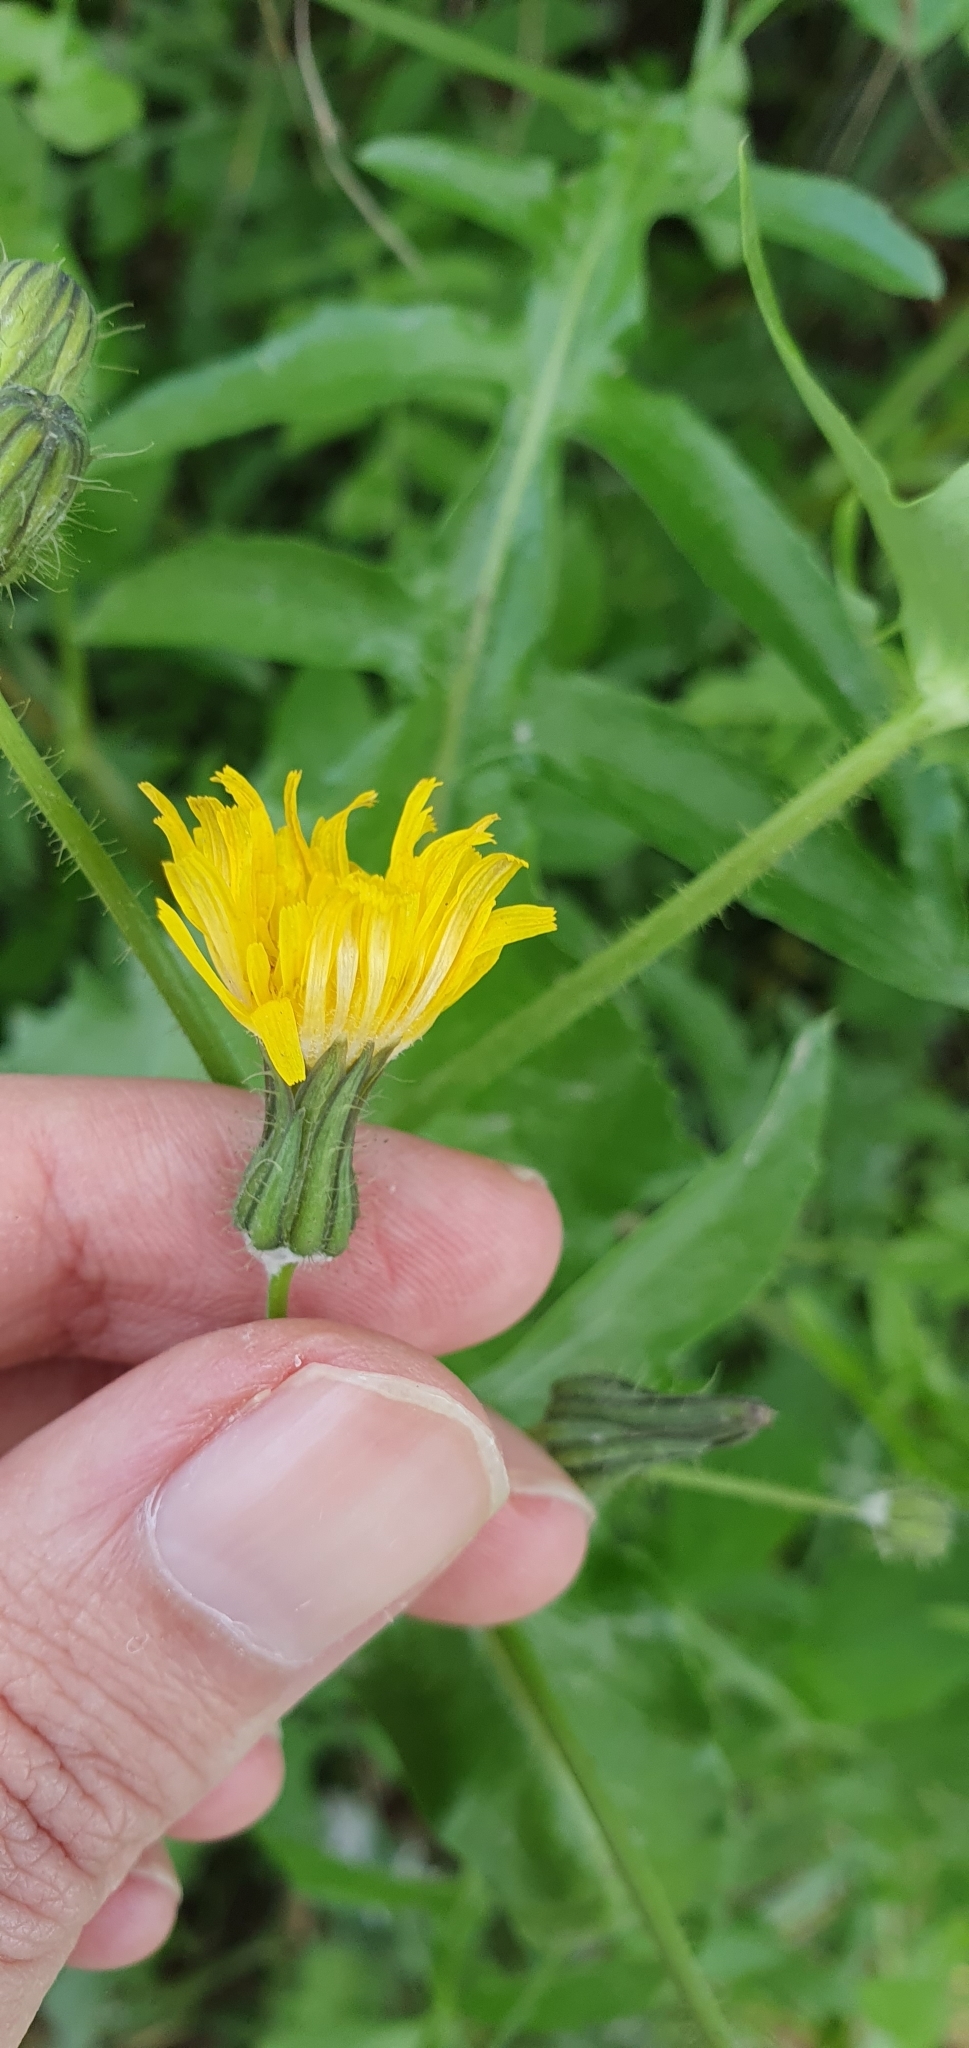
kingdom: Plantae
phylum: Tracheophyta
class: Magnoliopsida
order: Asterales
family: Asteraceae
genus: Sonchus
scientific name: Sonchus tenerrimus
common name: Clammy sowthistle
